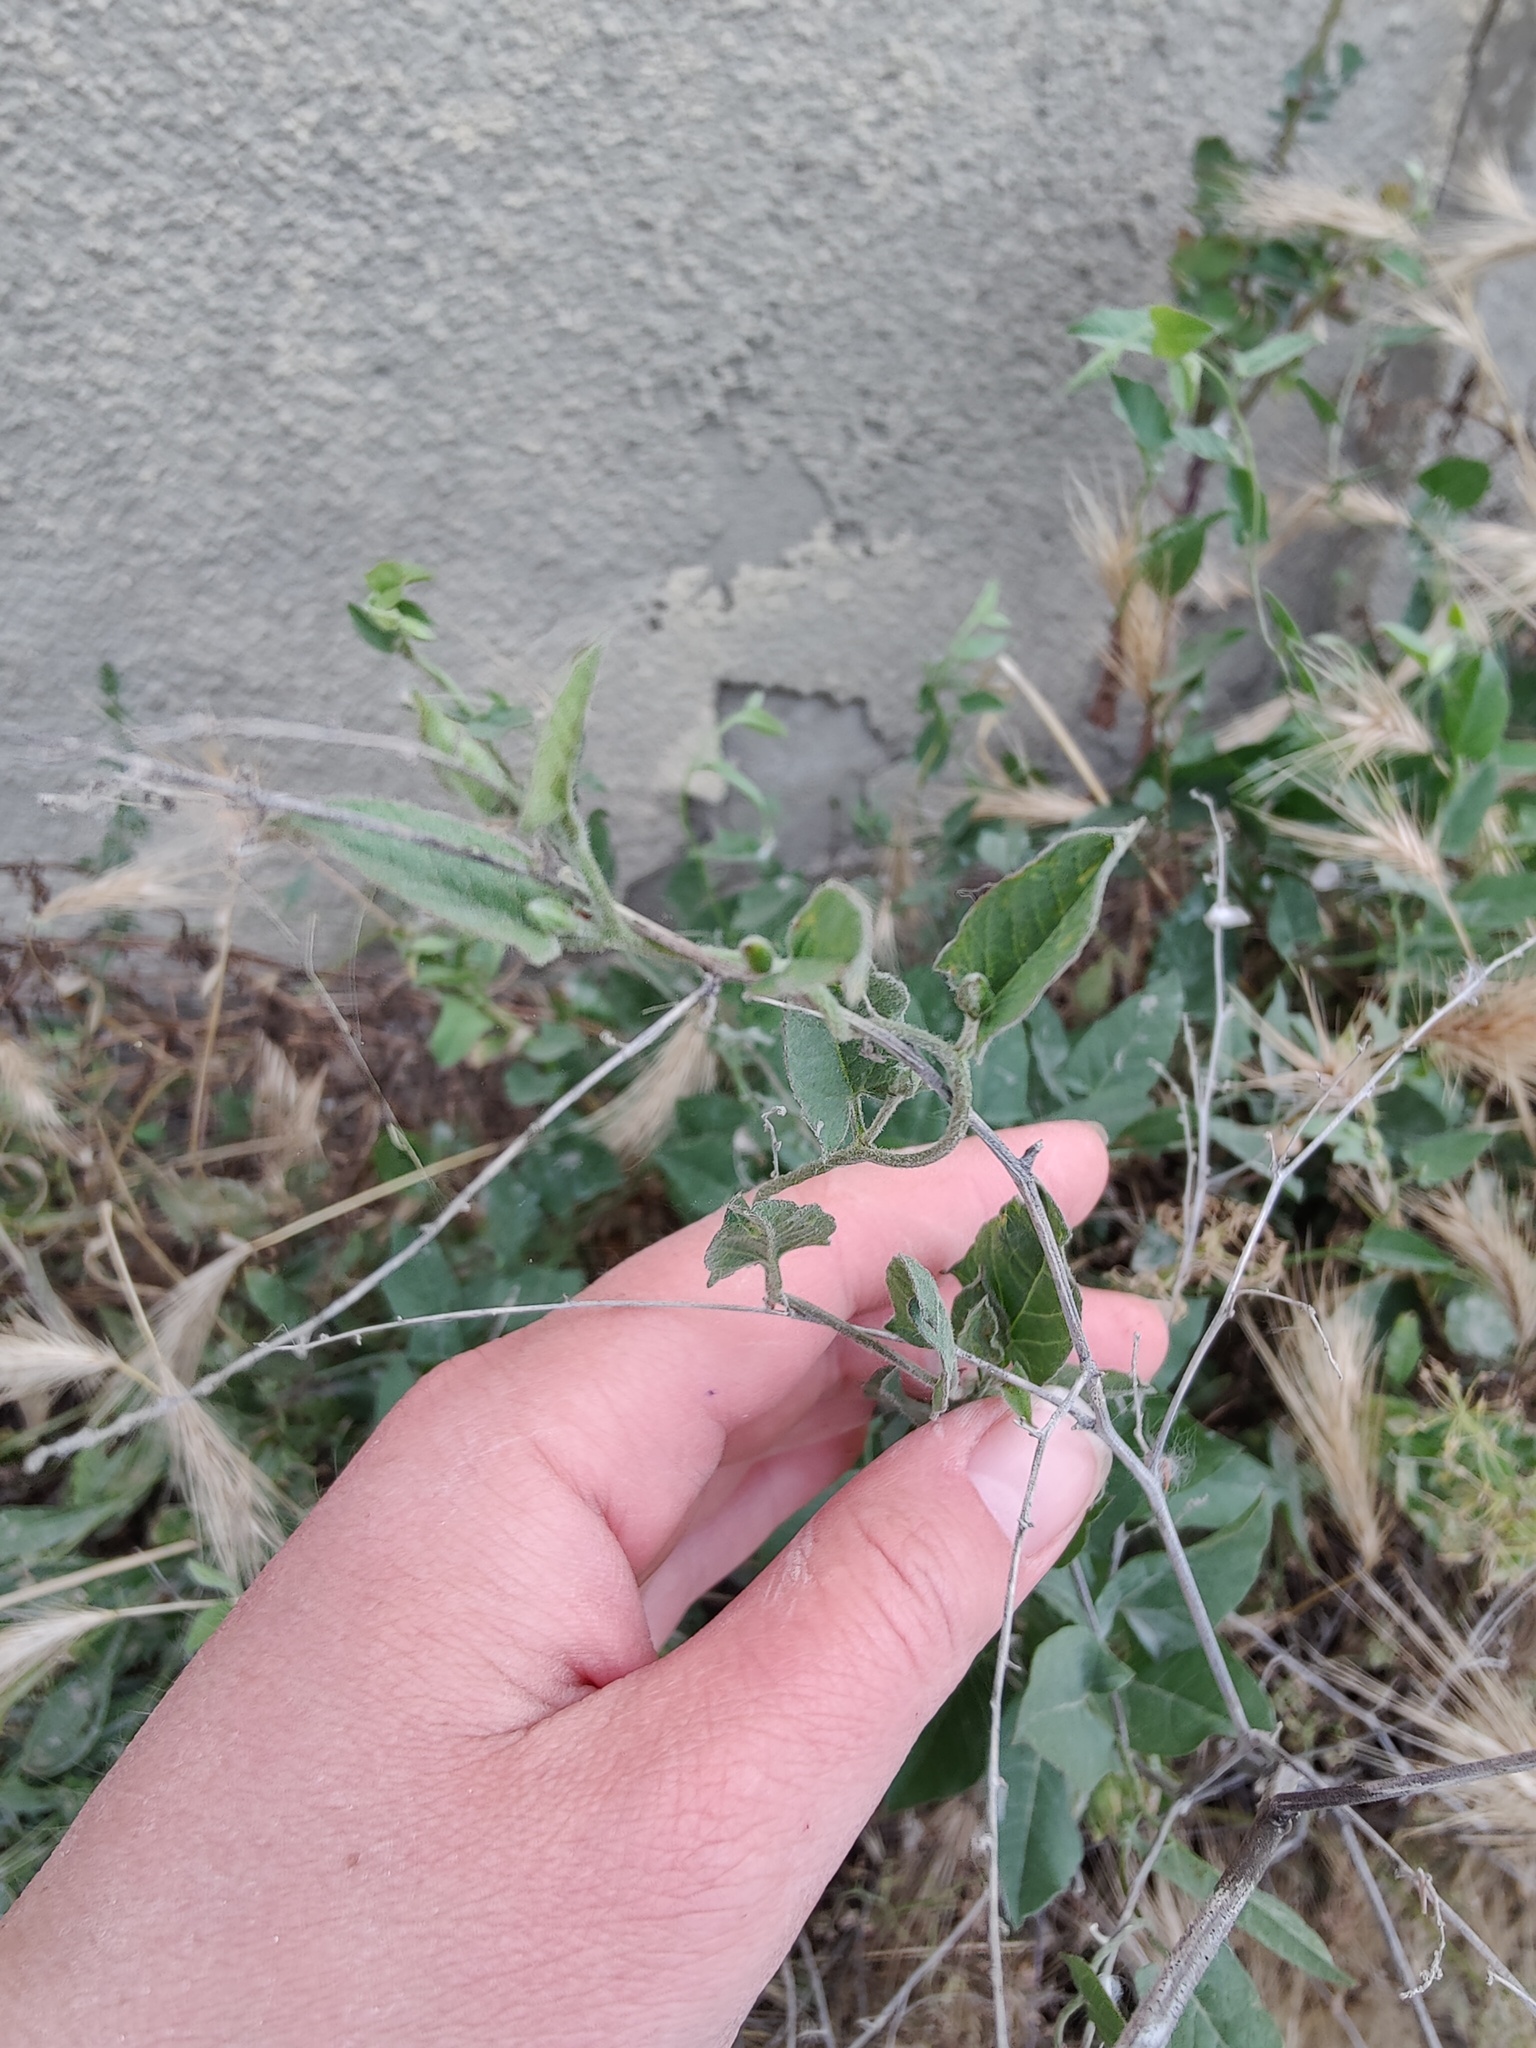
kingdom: Plantae
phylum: Tracheophyta
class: Magnoliopsida
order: Solanales
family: Convolvulaceae
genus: Convolvulus
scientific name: Convolvulus arvensis
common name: Field bindweed
